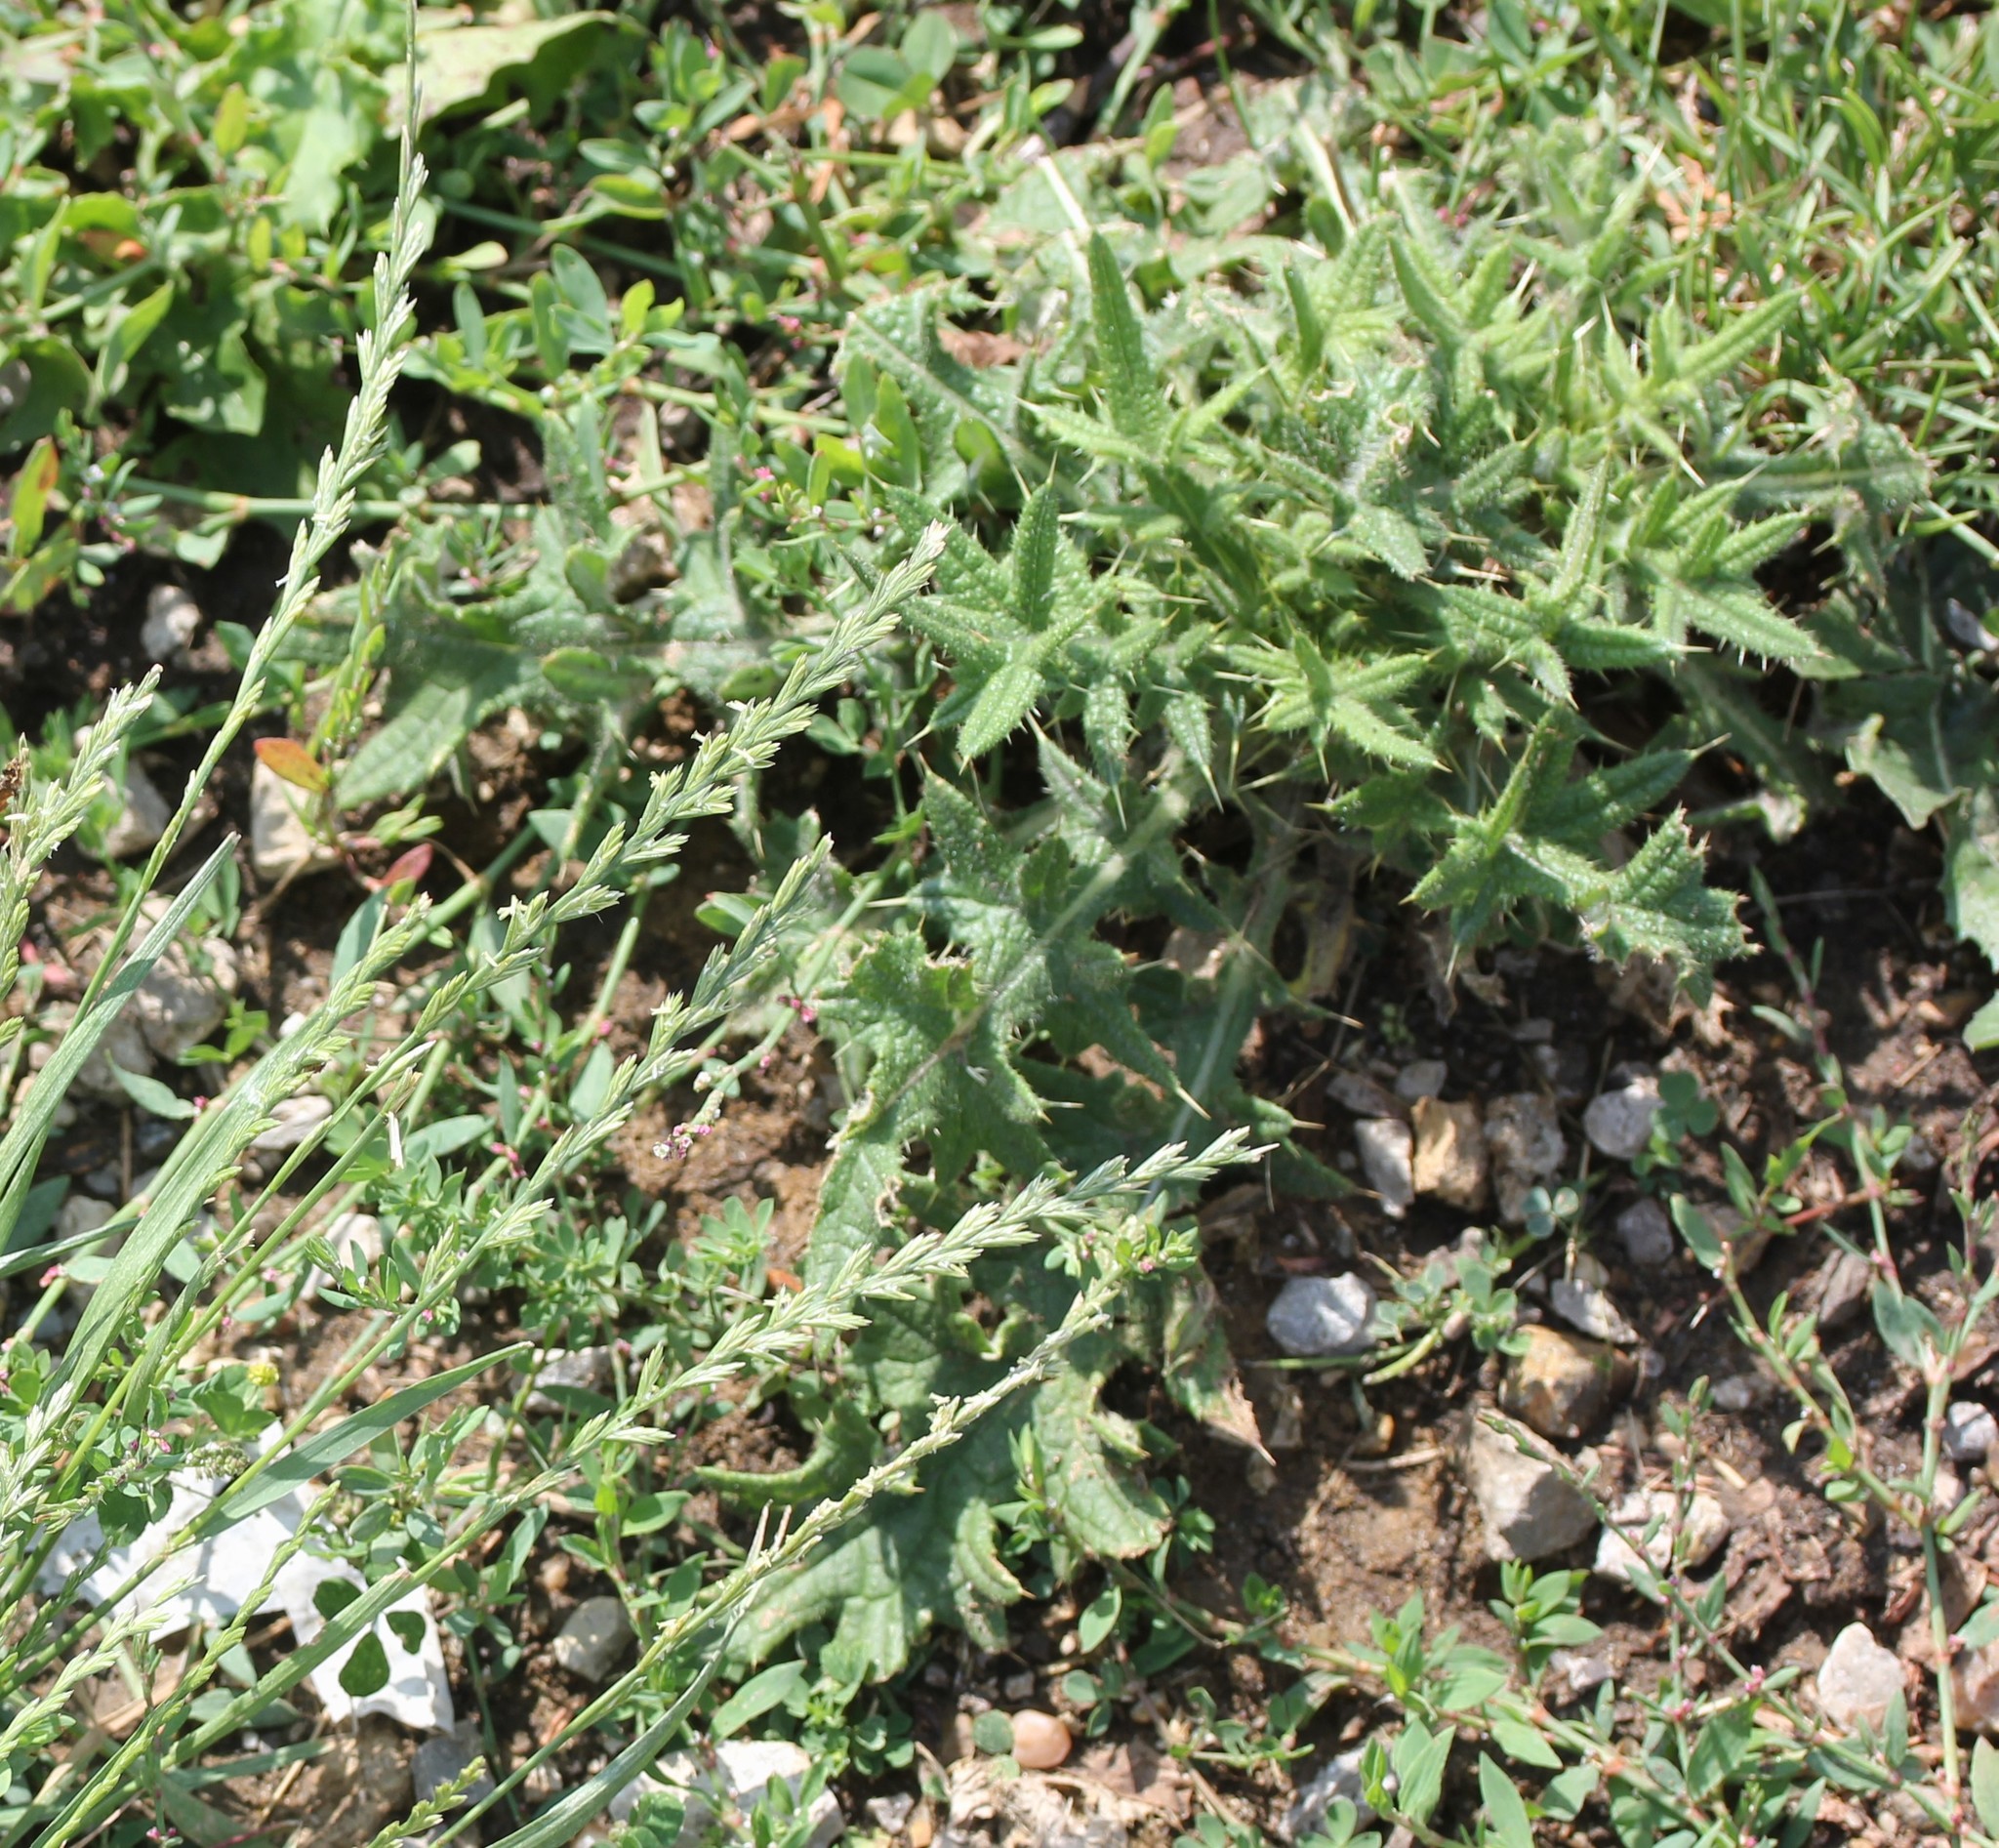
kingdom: Plantae
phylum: Tracheophyta
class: Magnoliopsida
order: Asterales
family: Asteraceae
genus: Cirsium
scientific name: Cirsium vulgare
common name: Bull thistle
